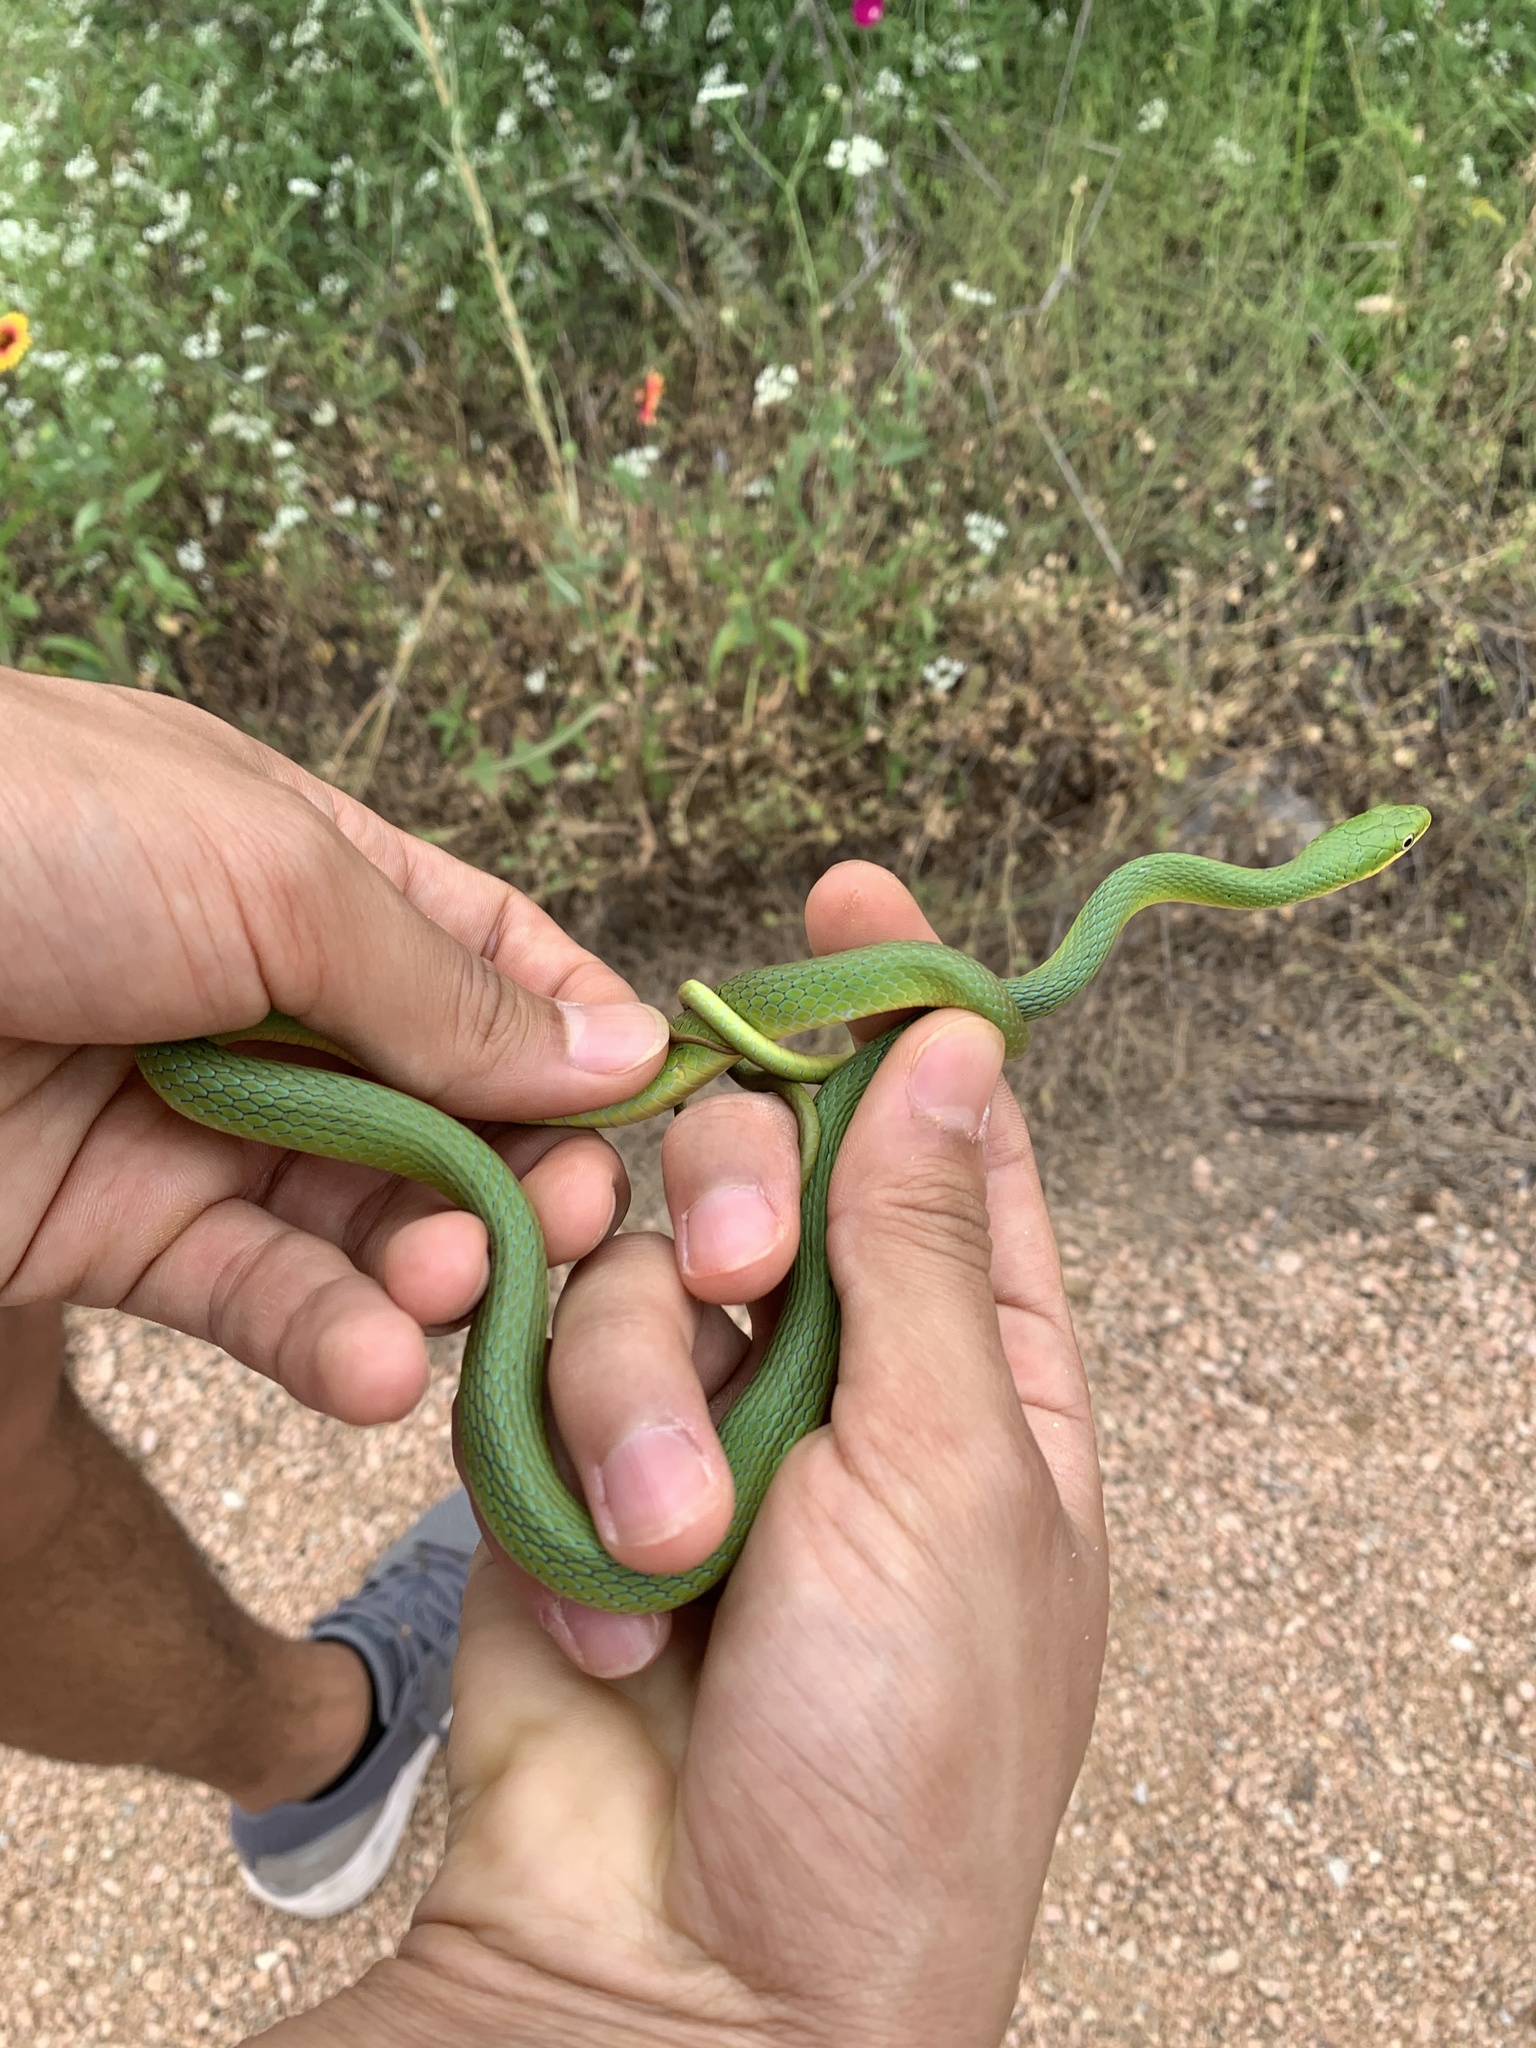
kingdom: Animalia
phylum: Chordata
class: Squamata
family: Colubridae
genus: Opheodrys
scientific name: Opheodrys aestivus
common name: Rough greensnake
